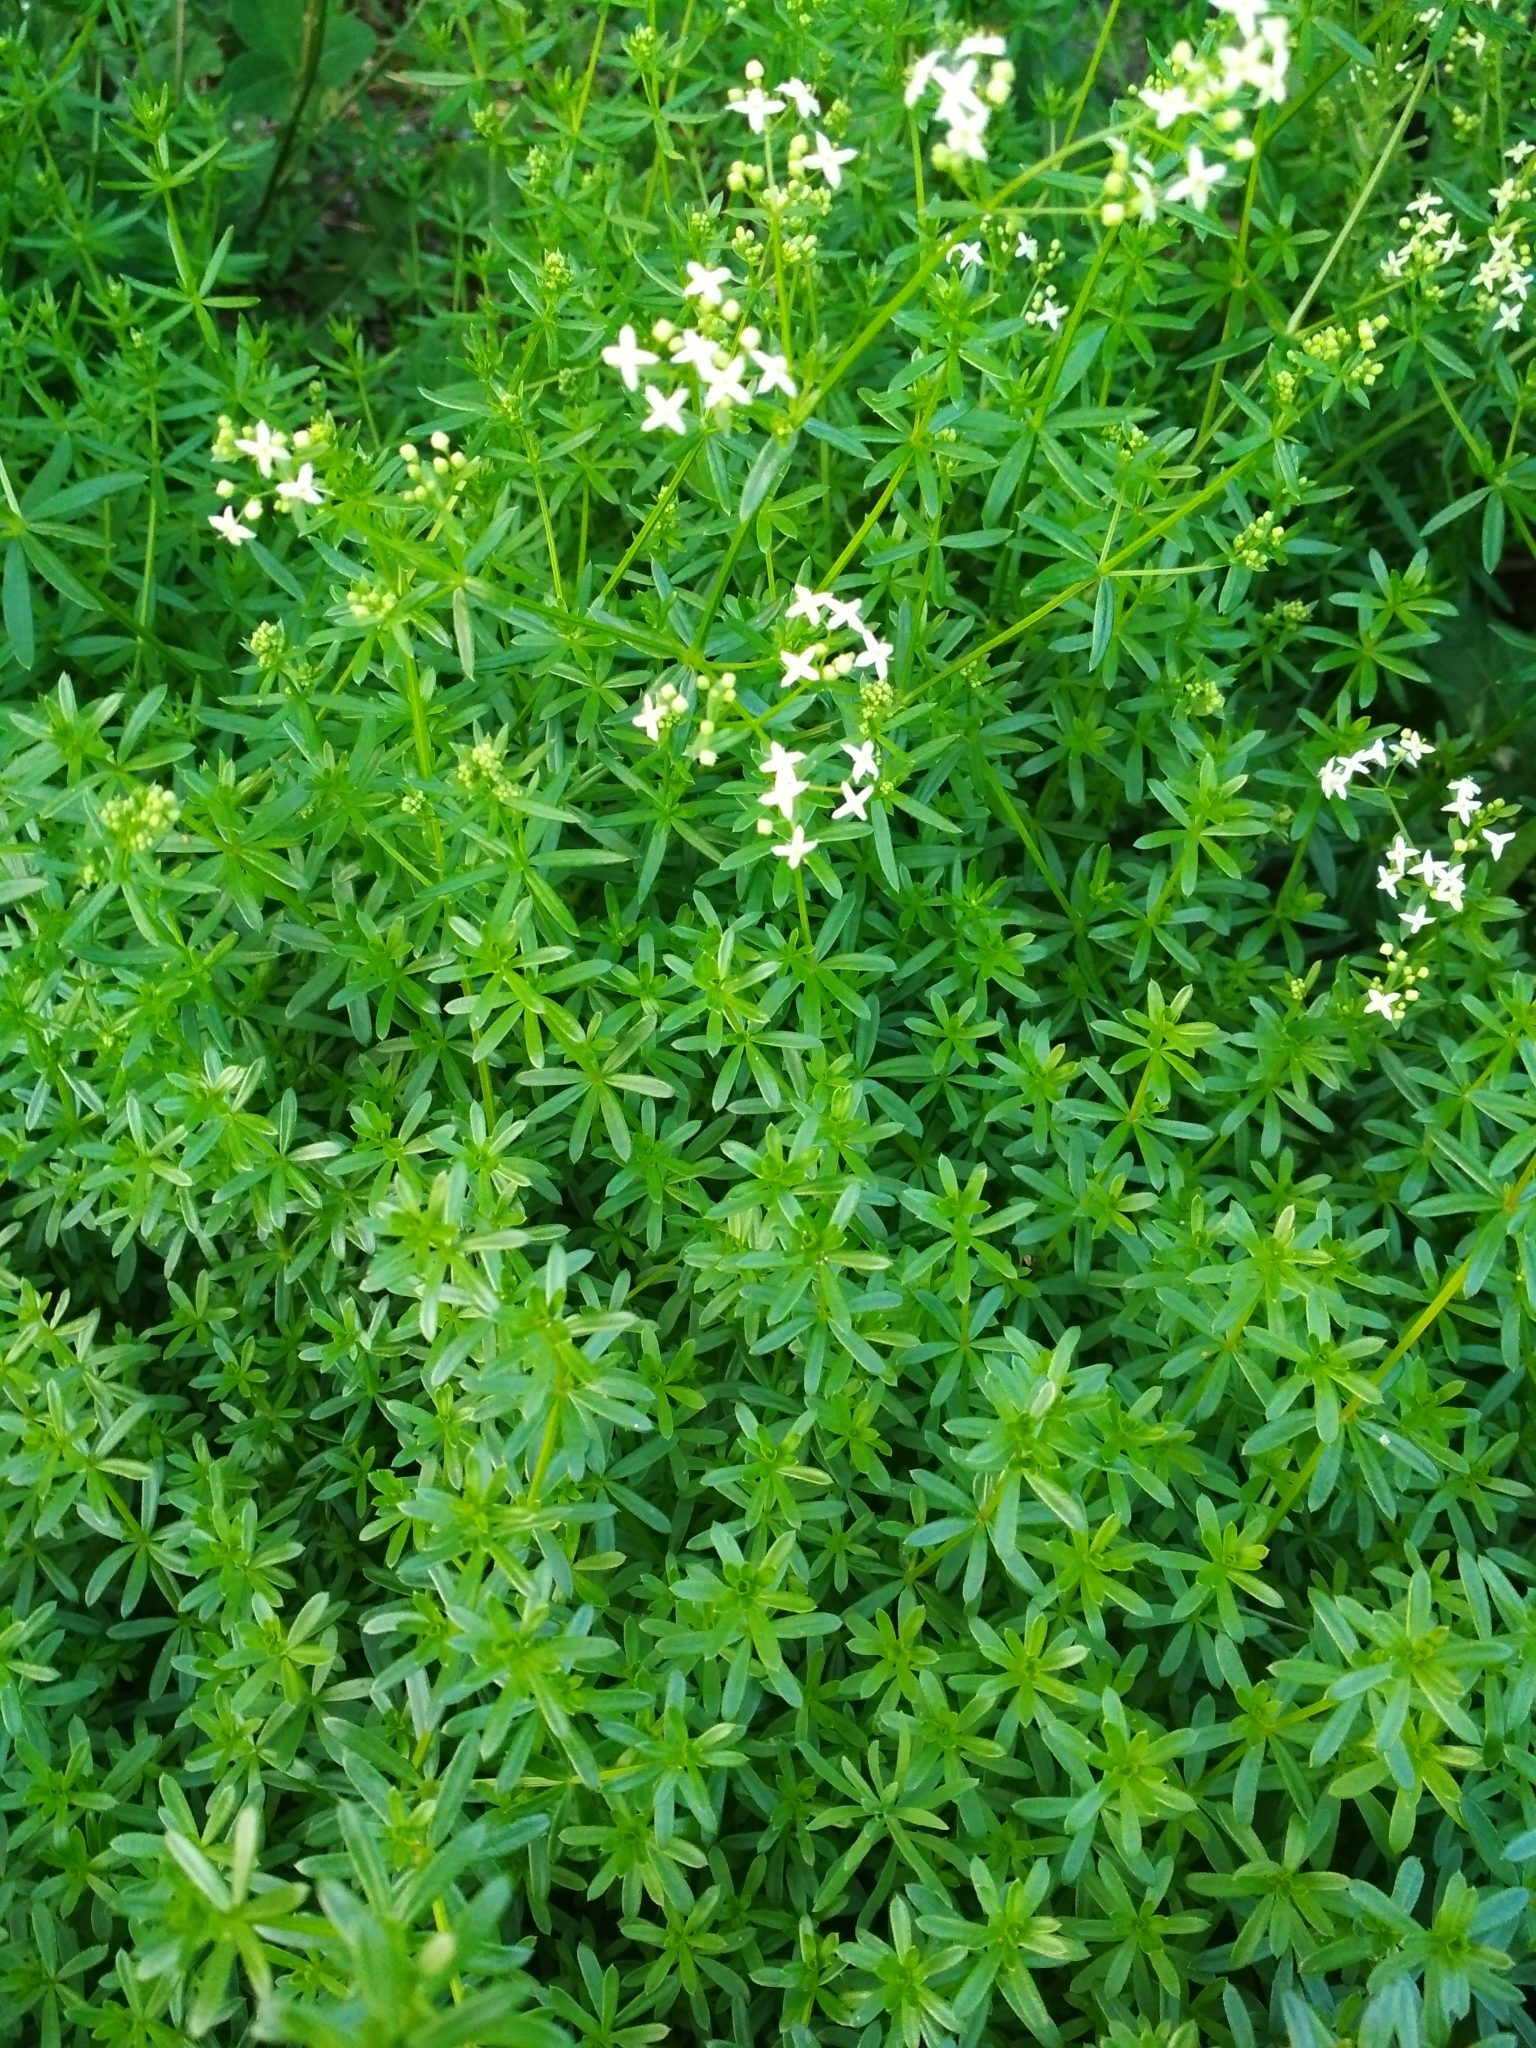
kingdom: Plantae
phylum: Tracheophyta
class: Magnoliopsida
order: Gentianales
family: Rubiaceae
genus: Galium
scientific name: Galium mollugo
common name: Hedge bedstraw
